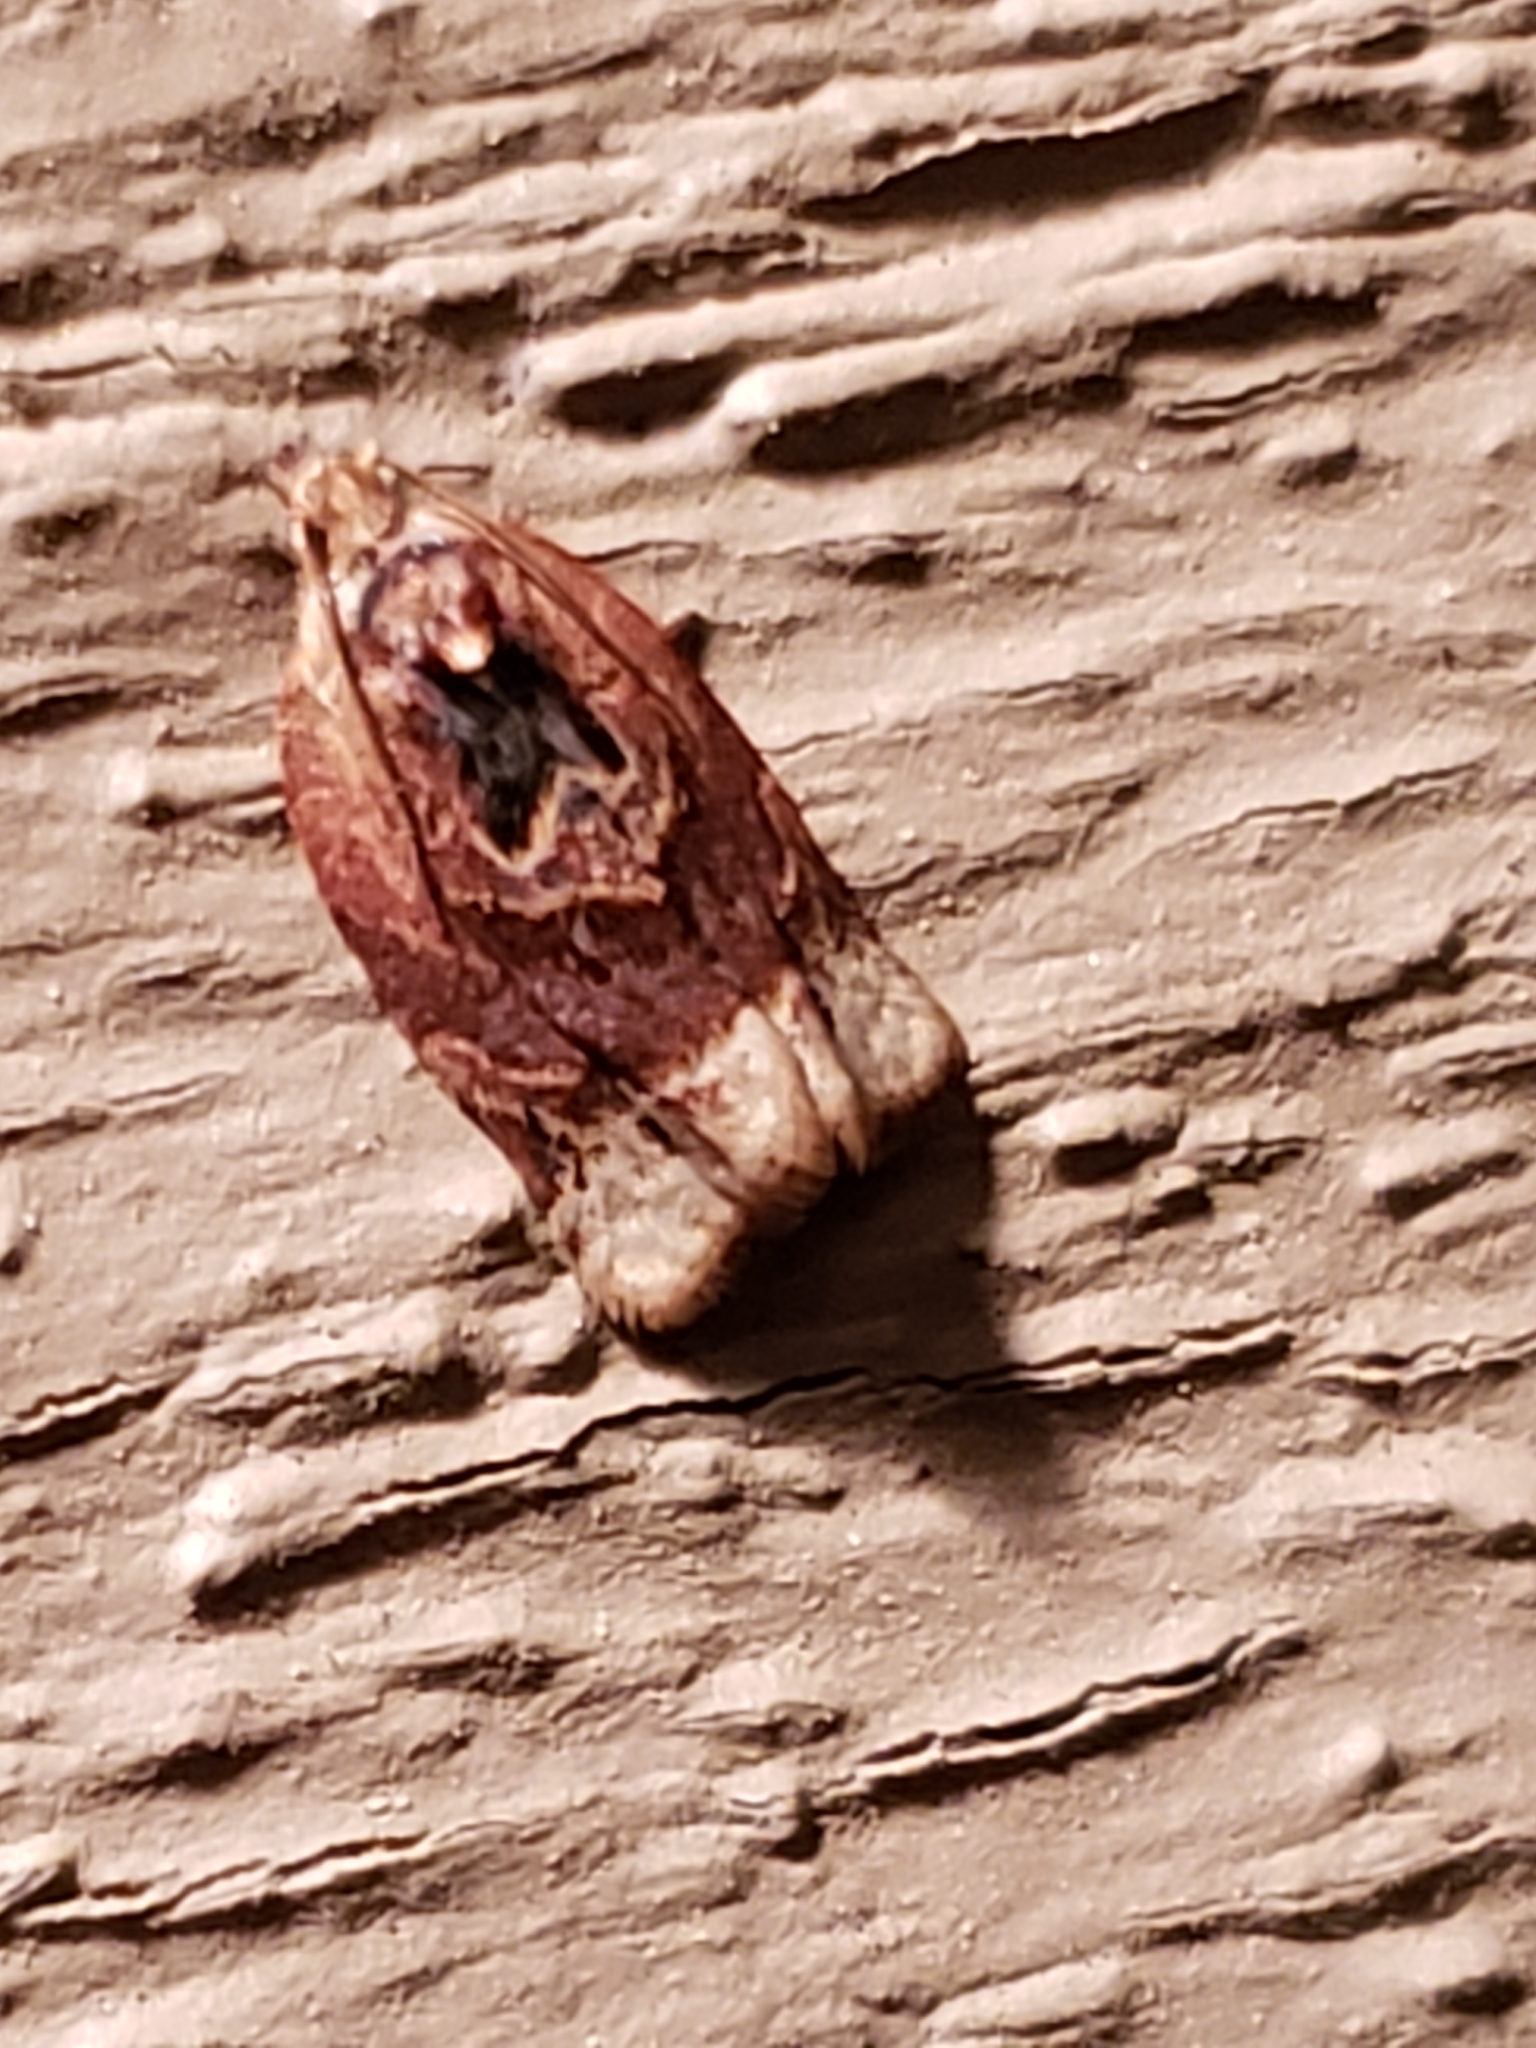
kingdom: Animalia
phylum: Arthropoda
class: Insecta
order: Lepidoptera
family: Tortricidae
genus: Argyrotaenia
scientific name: Argyrotaenia velutinana
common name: Red-banded leafroller moth
